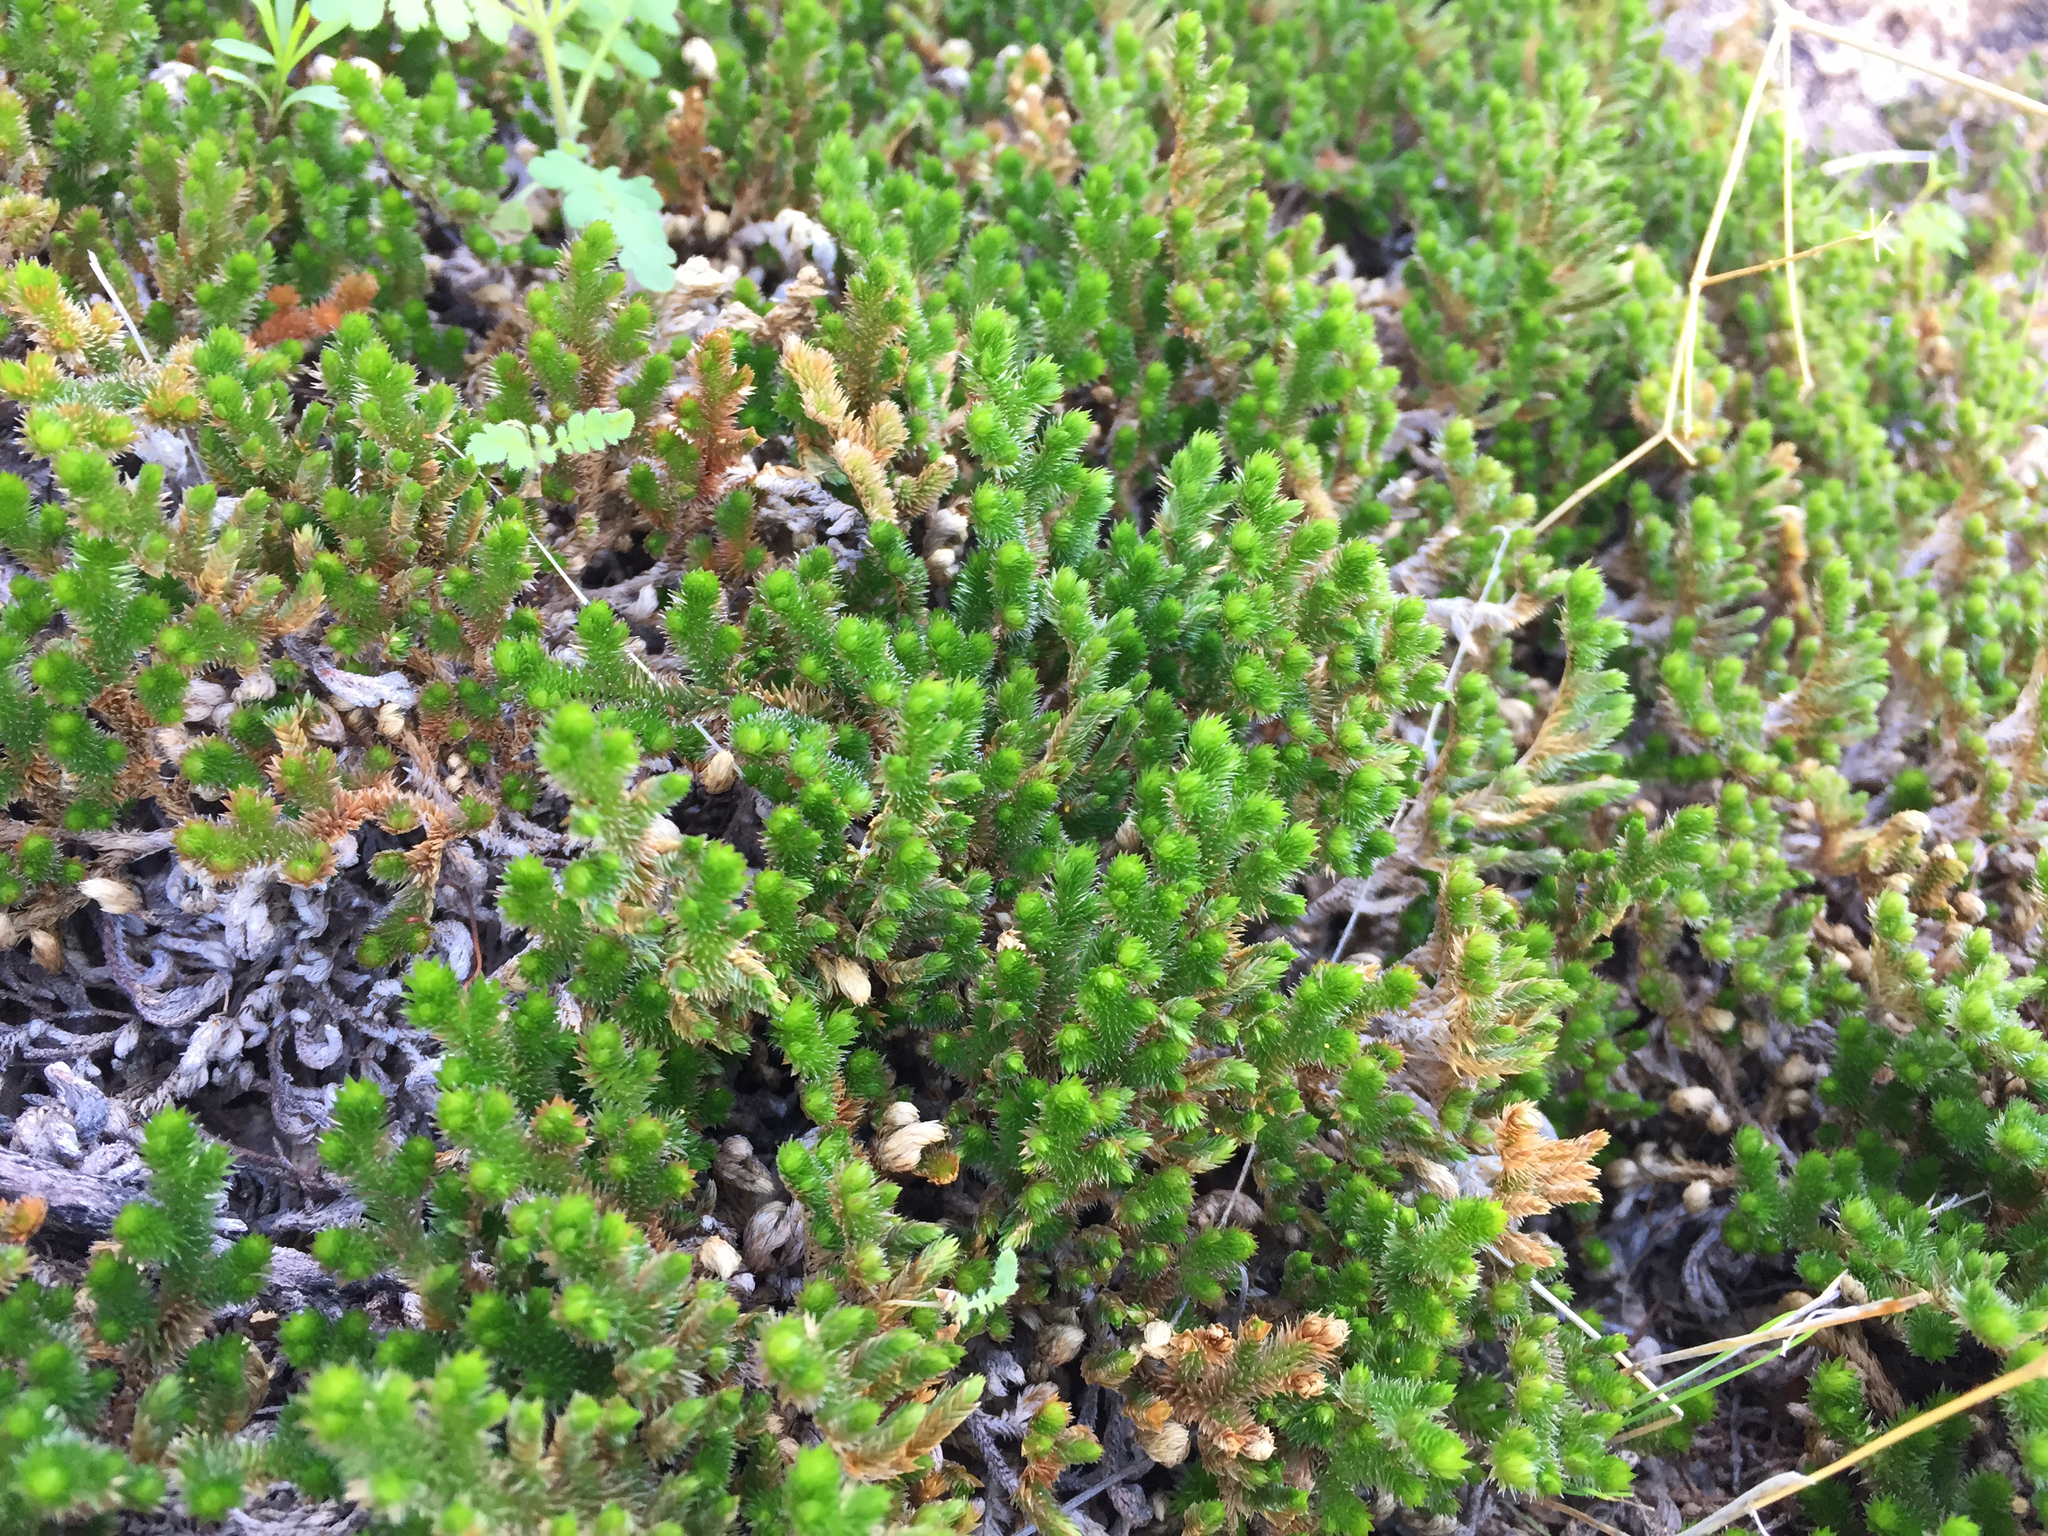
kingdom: Plantae
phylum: Tracheophyta
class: Lycopodiopsida
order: Selaginellales
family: Selaginellaceae
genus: Selaginella
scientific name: Selaginella arizonica
